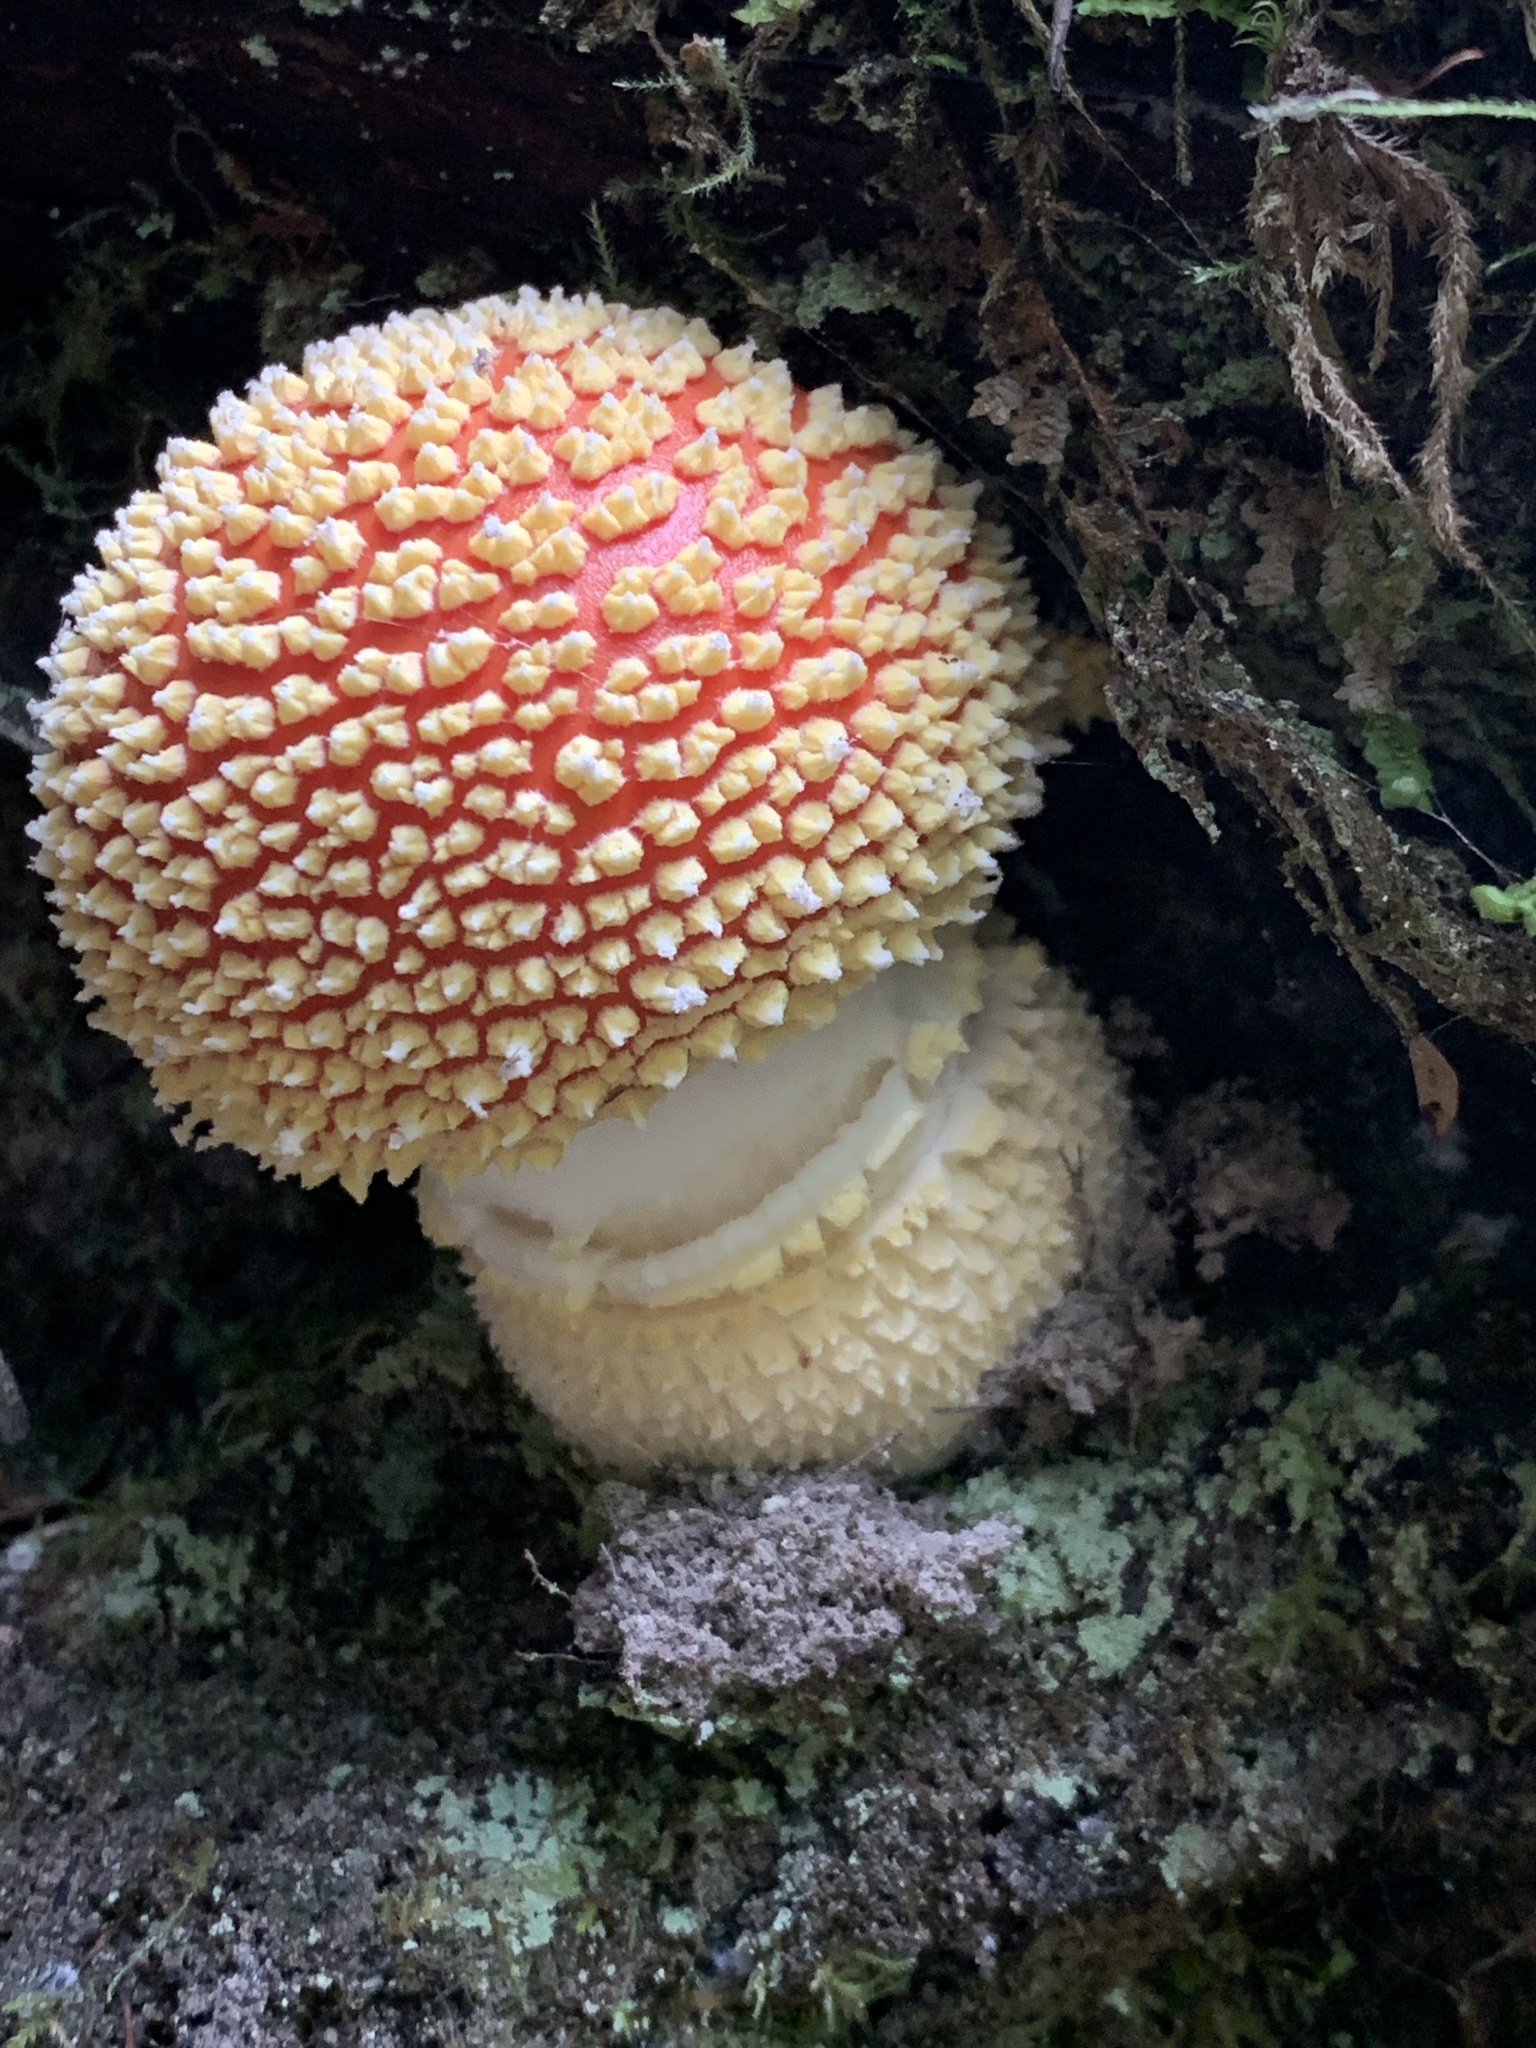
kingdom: Fungi
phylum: Basidiomycota
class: Agaricomycetes
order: Agaricales
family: Amanitaceae
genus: Amanita
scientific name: Amanita muscaria
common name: Fly agaric
